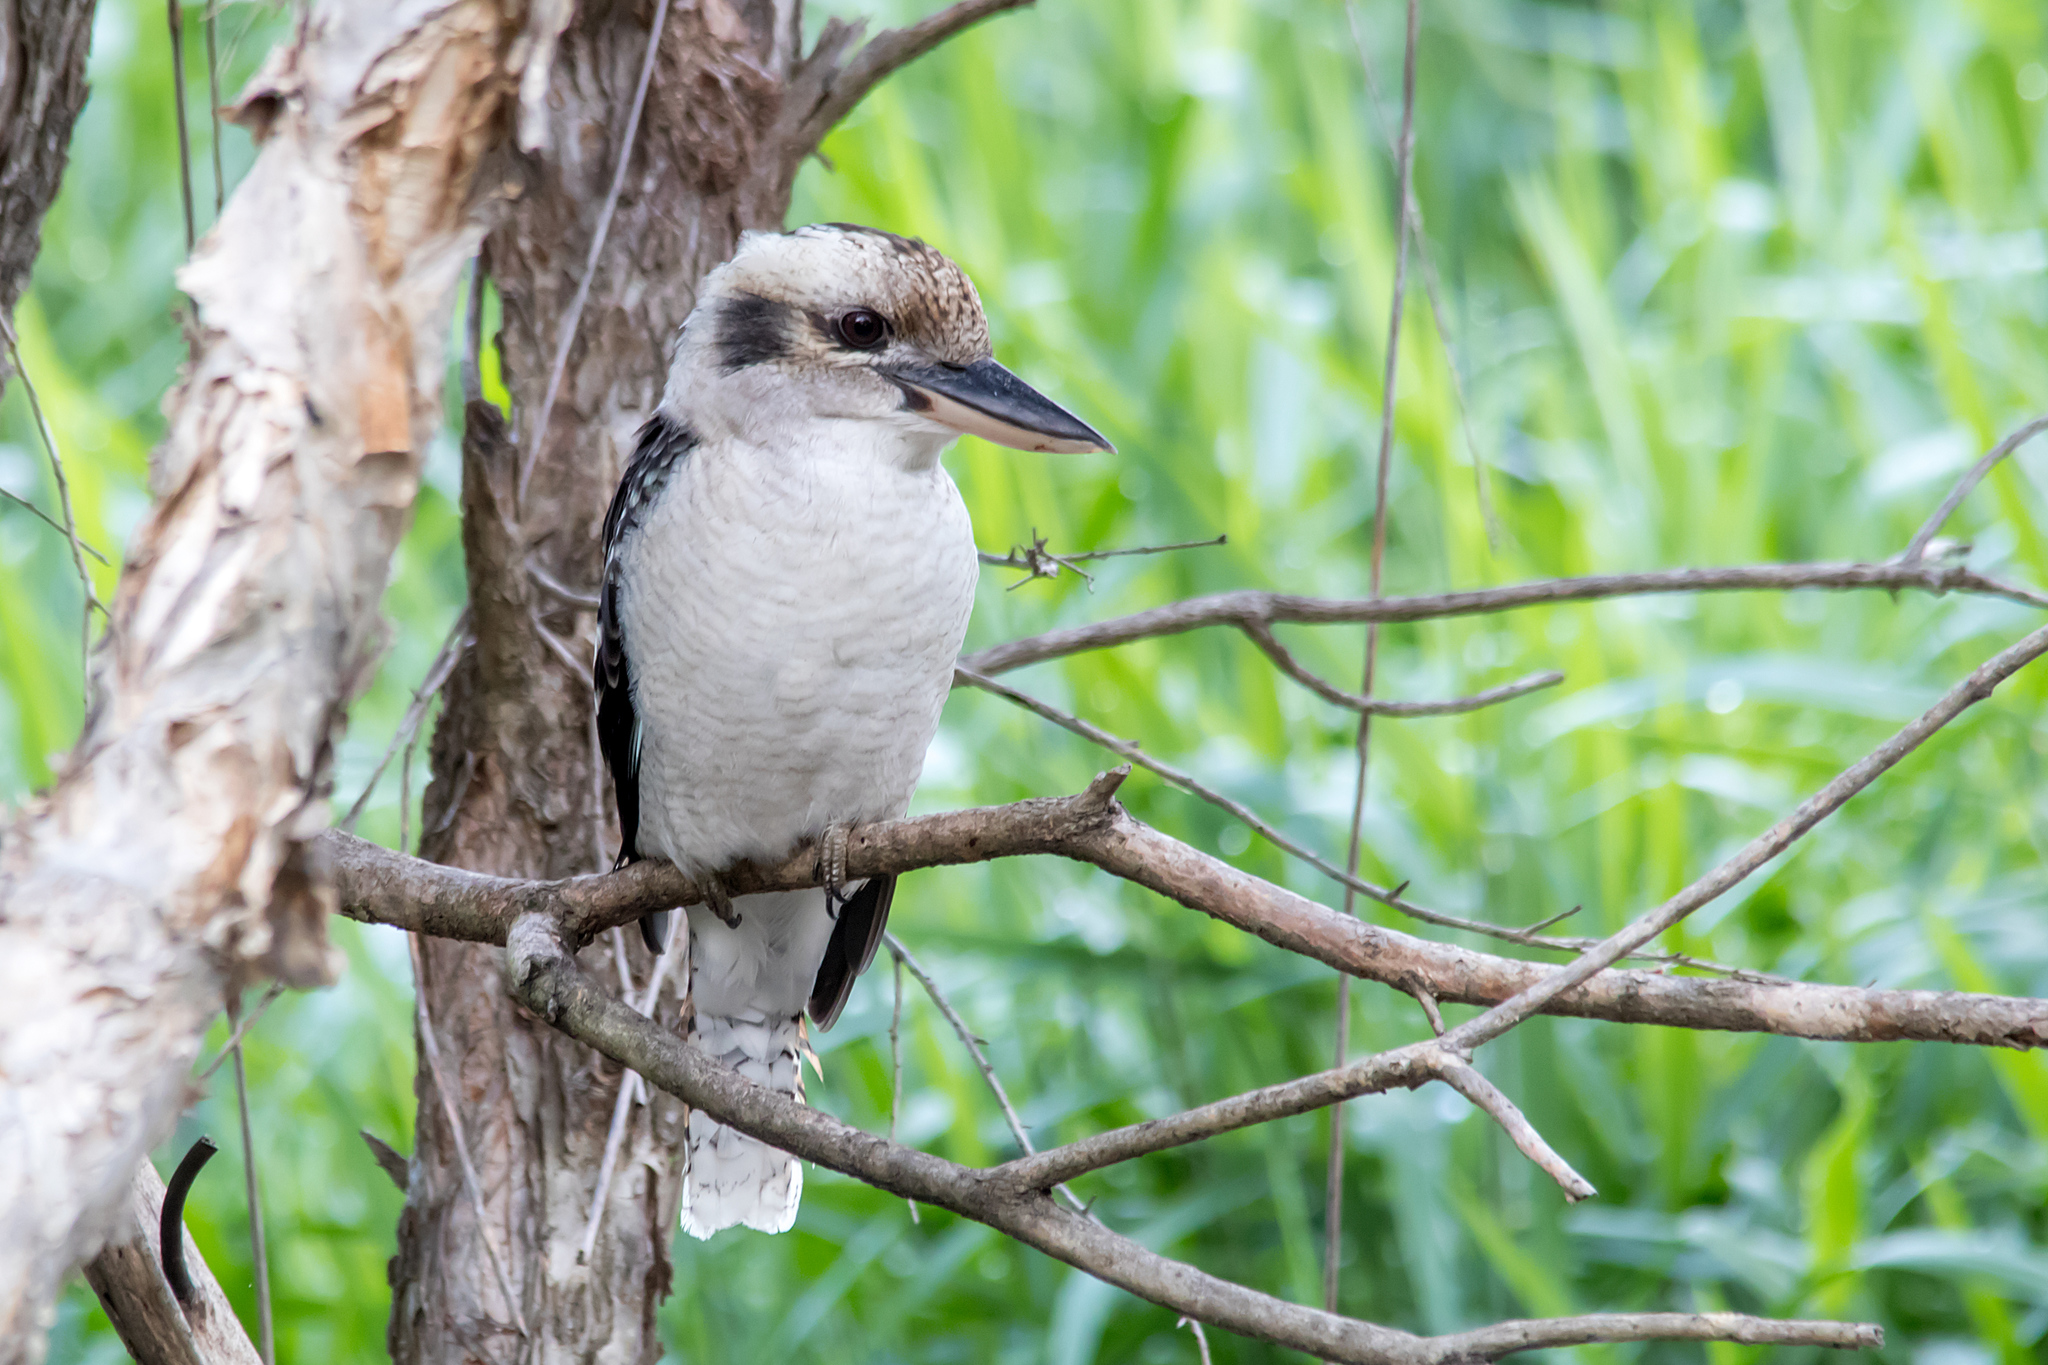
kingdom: Animalia
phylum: Chordata
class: Aves
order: Coraciiformes
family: Alcedinidae
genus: Dacelo
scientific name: Dacelo novaeguineae
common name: Laughing kookaburra
